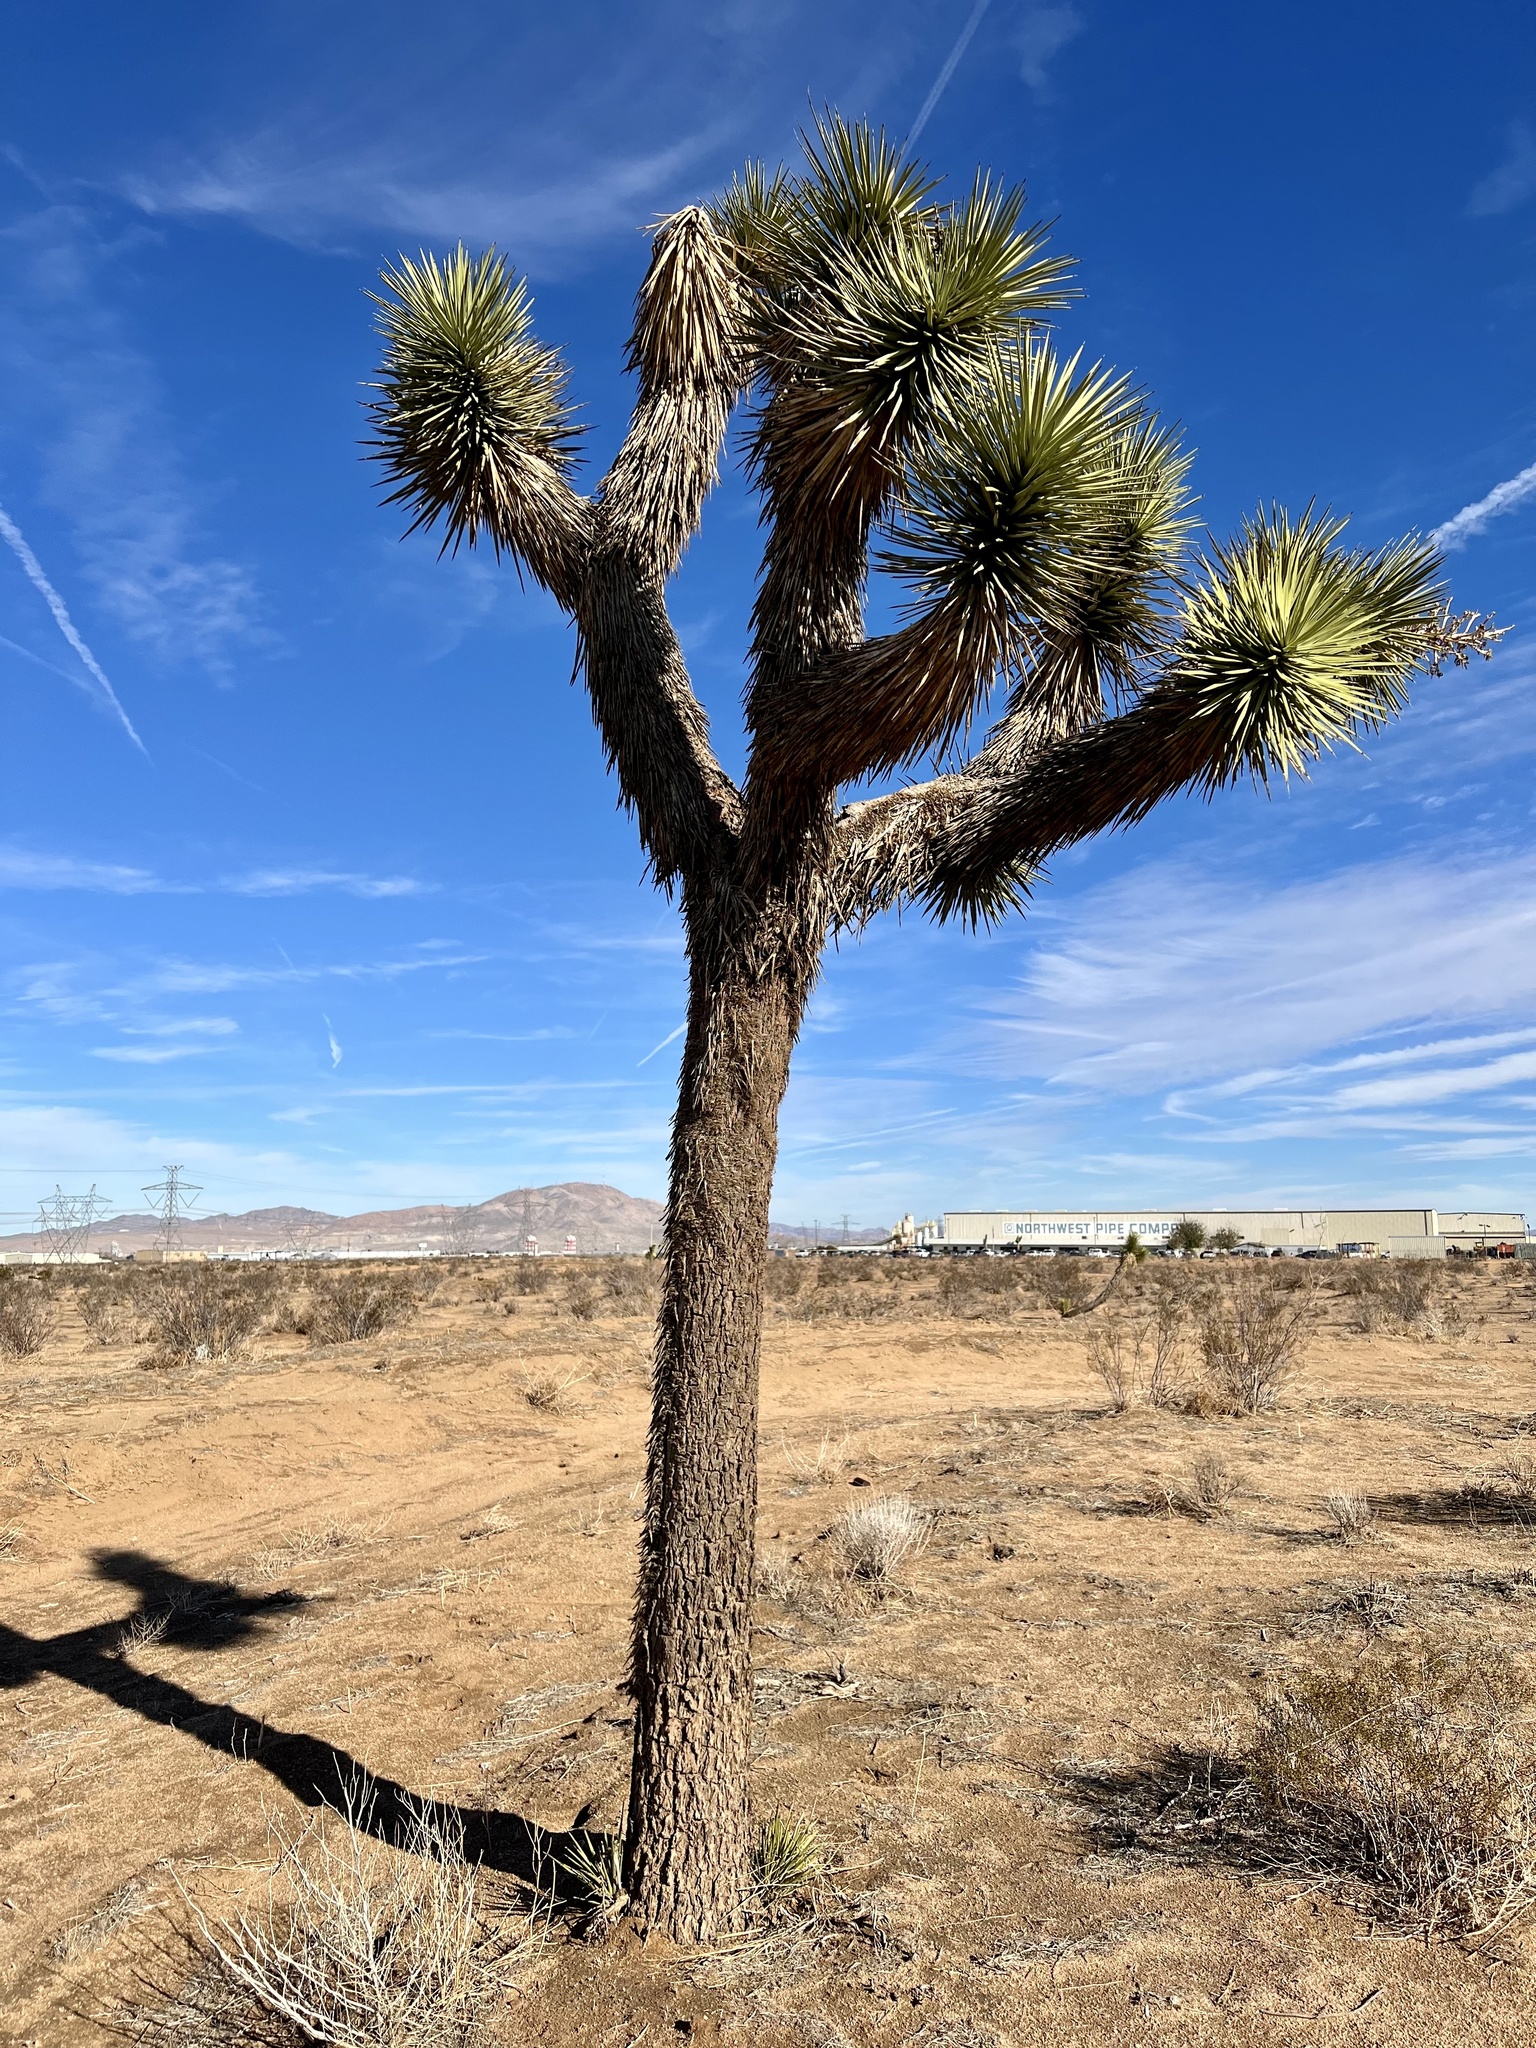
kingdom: Plantae
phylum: Tracheophyta
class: Liliopsida
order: Asparagales
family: Asparagaceae
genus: Yucca
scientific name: Yucca brevifolia
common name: Joshua tree
